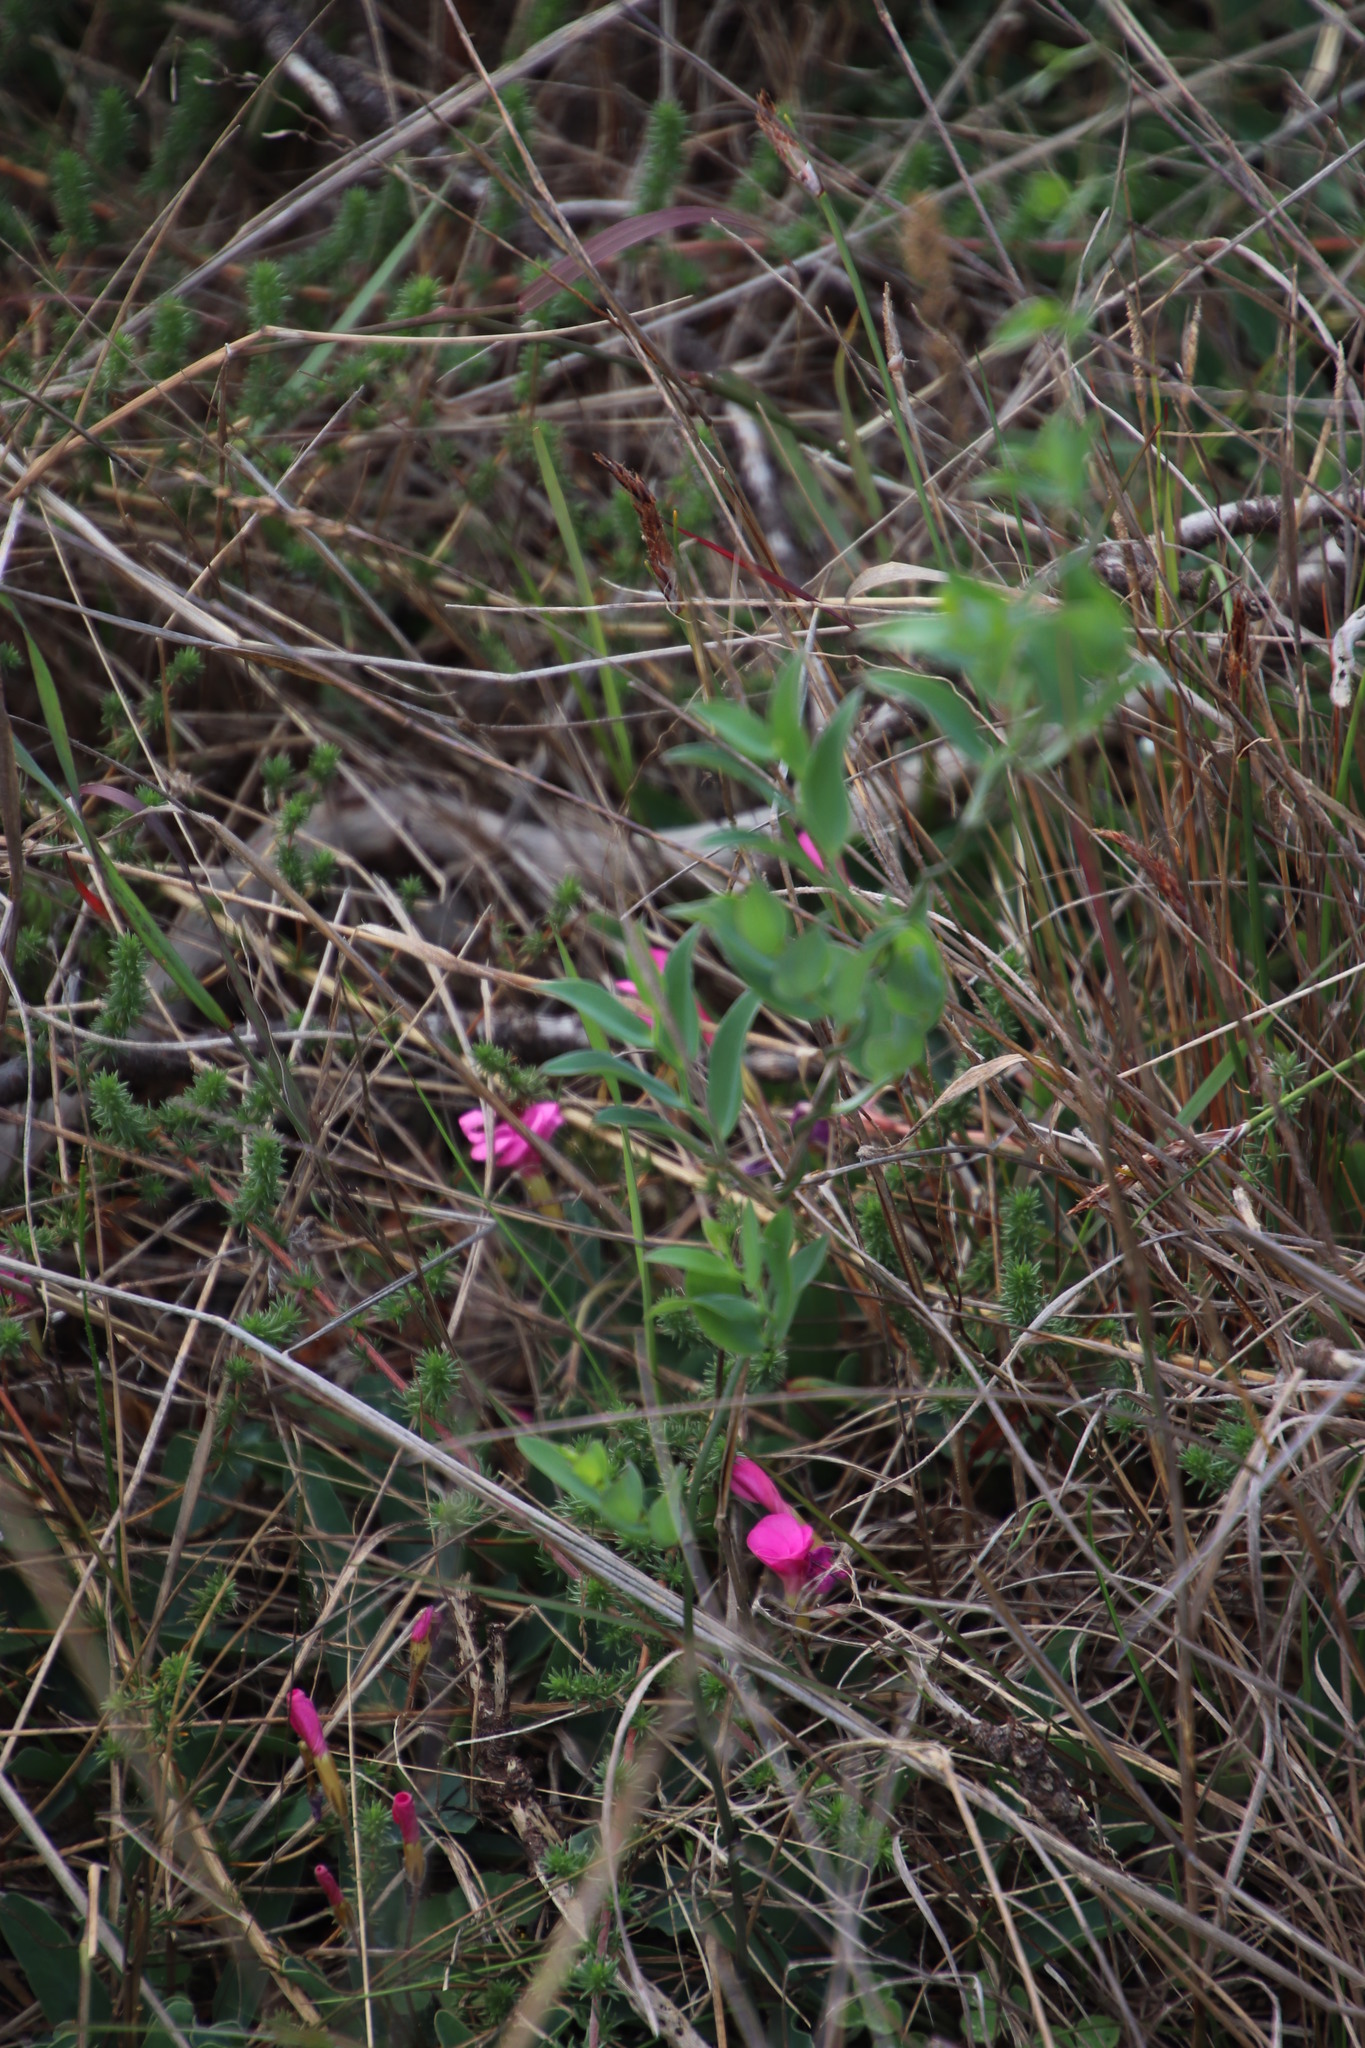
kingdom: Plantae
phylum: Tracheophyta
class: Liliopsida
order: Asparagales
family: Asparagaceae
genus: Asparagus
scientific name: Asparagus asparagoides
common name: African asparagus fern
